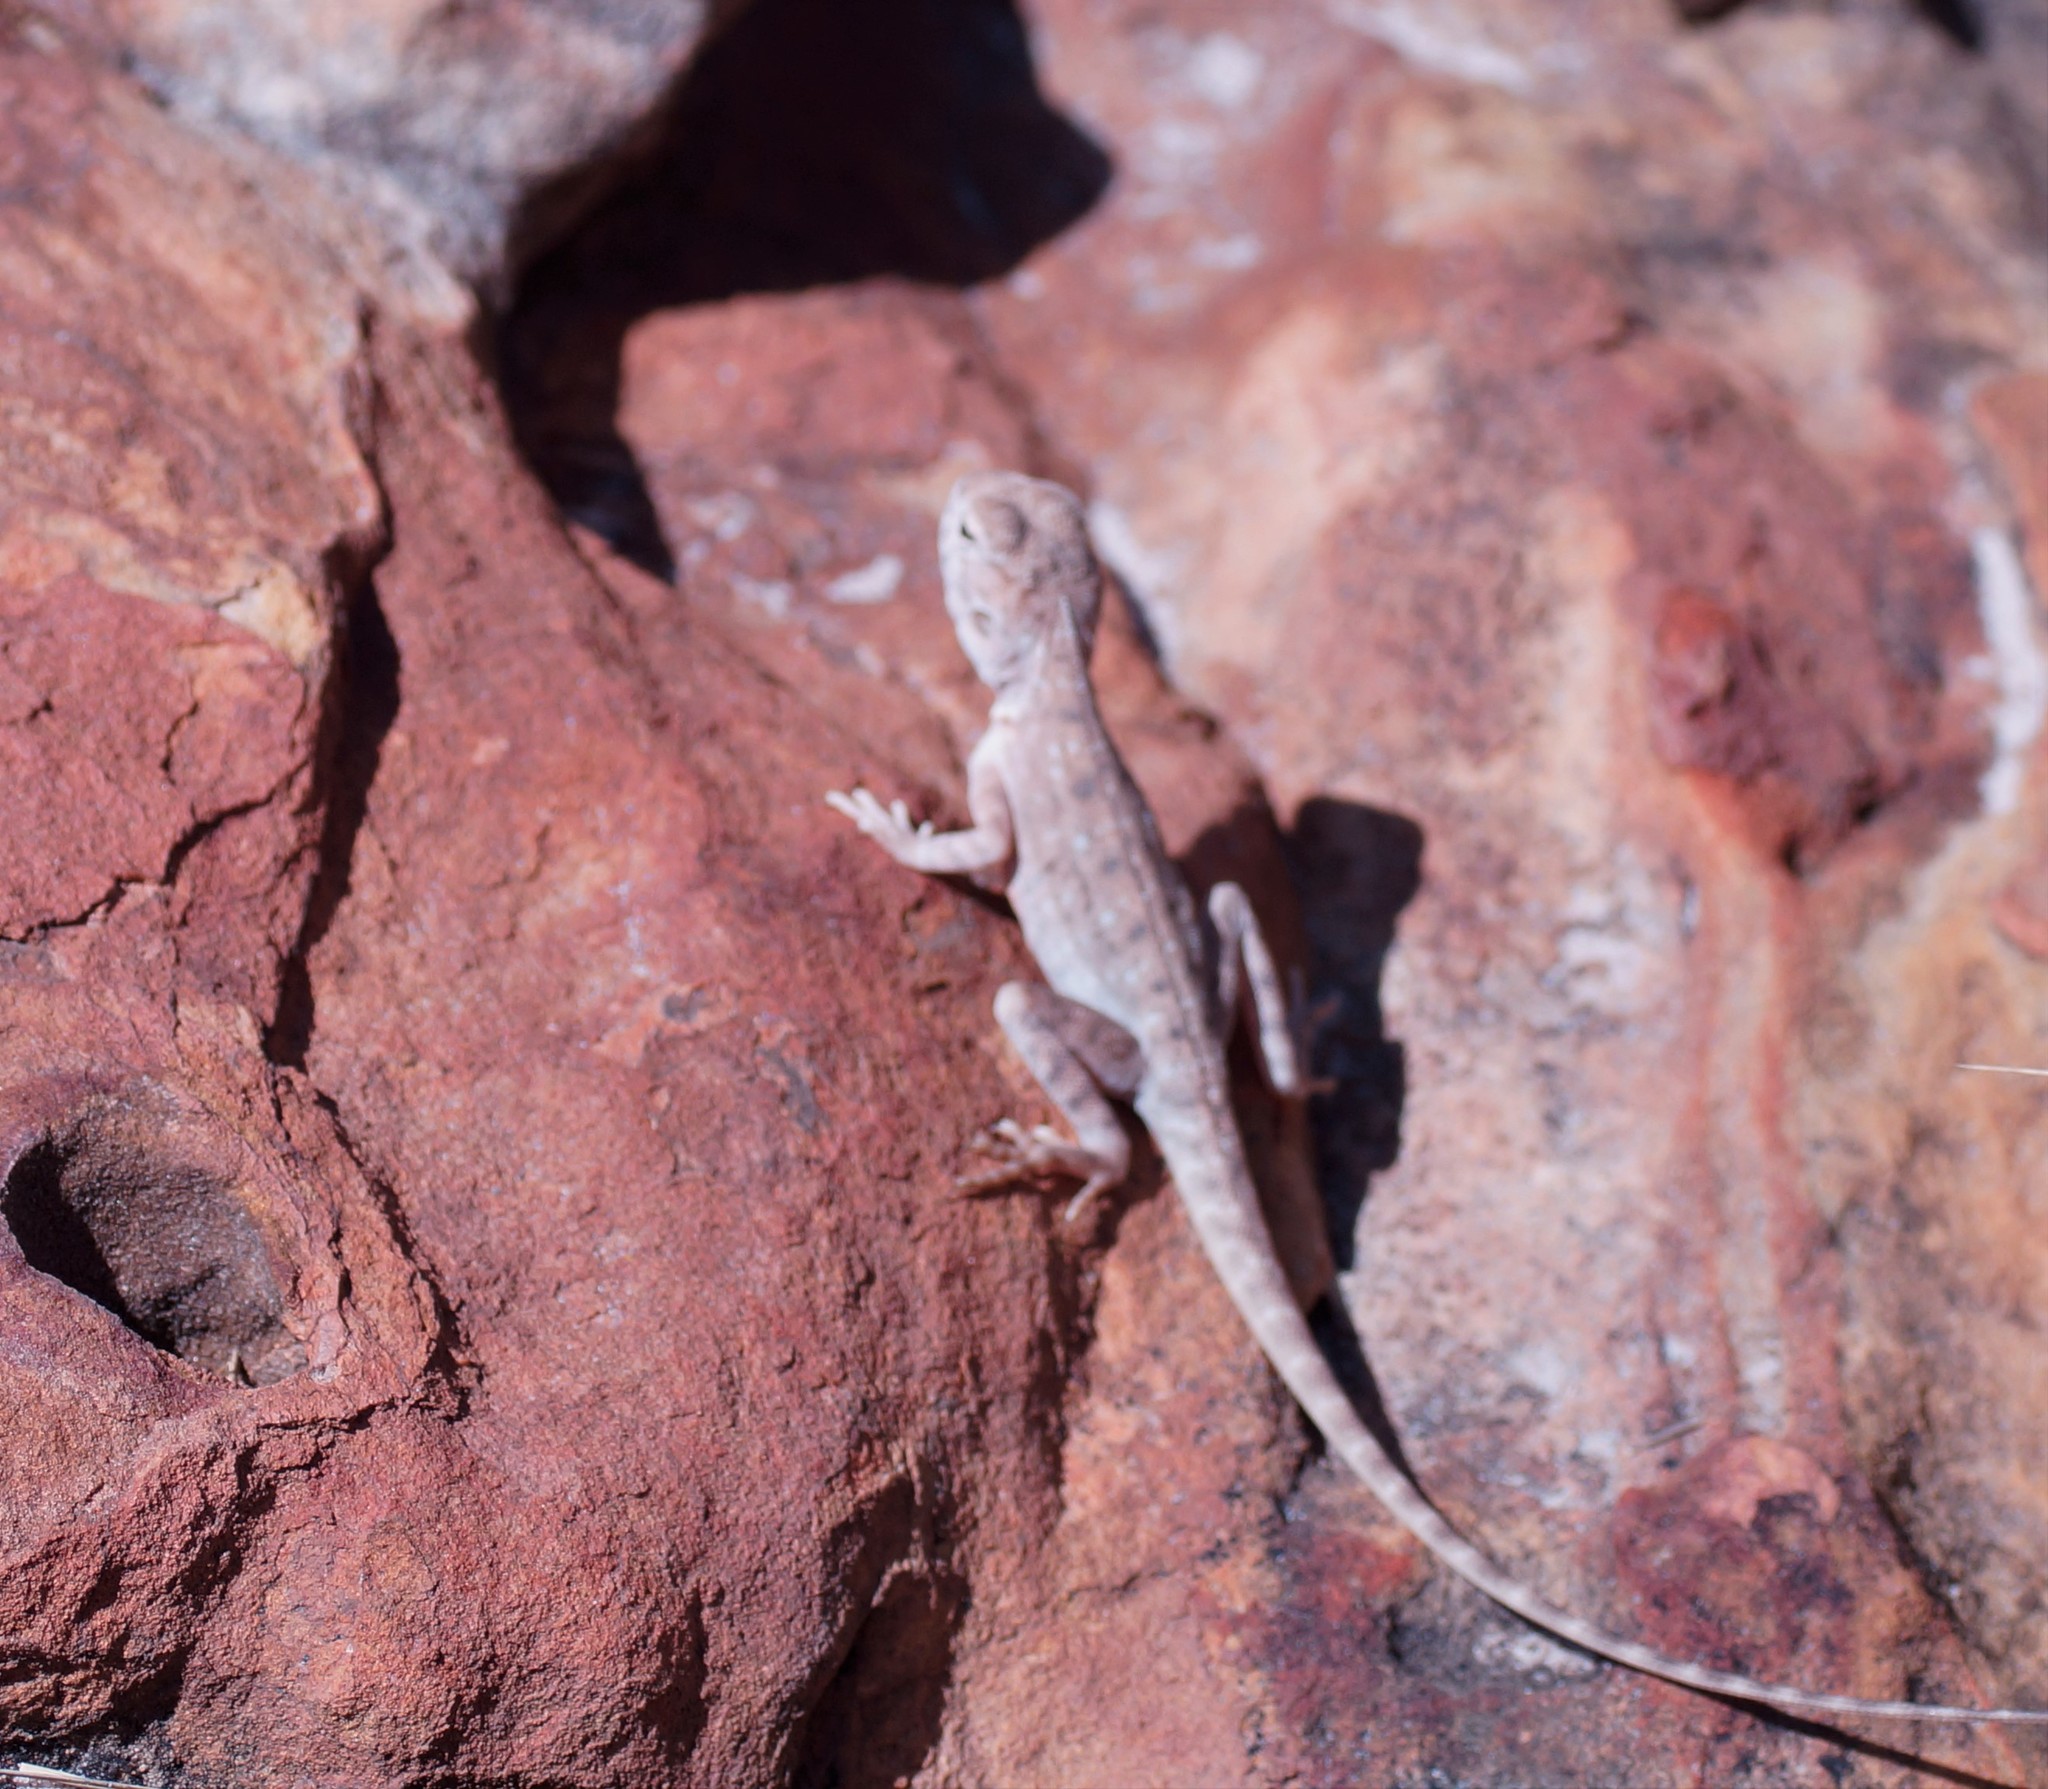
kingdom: Animalia
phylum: Chordata
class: Squamata
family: Agamidae
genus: Ctenophorus
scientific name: Ctenophorus slateri
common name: Slater’s dragon
